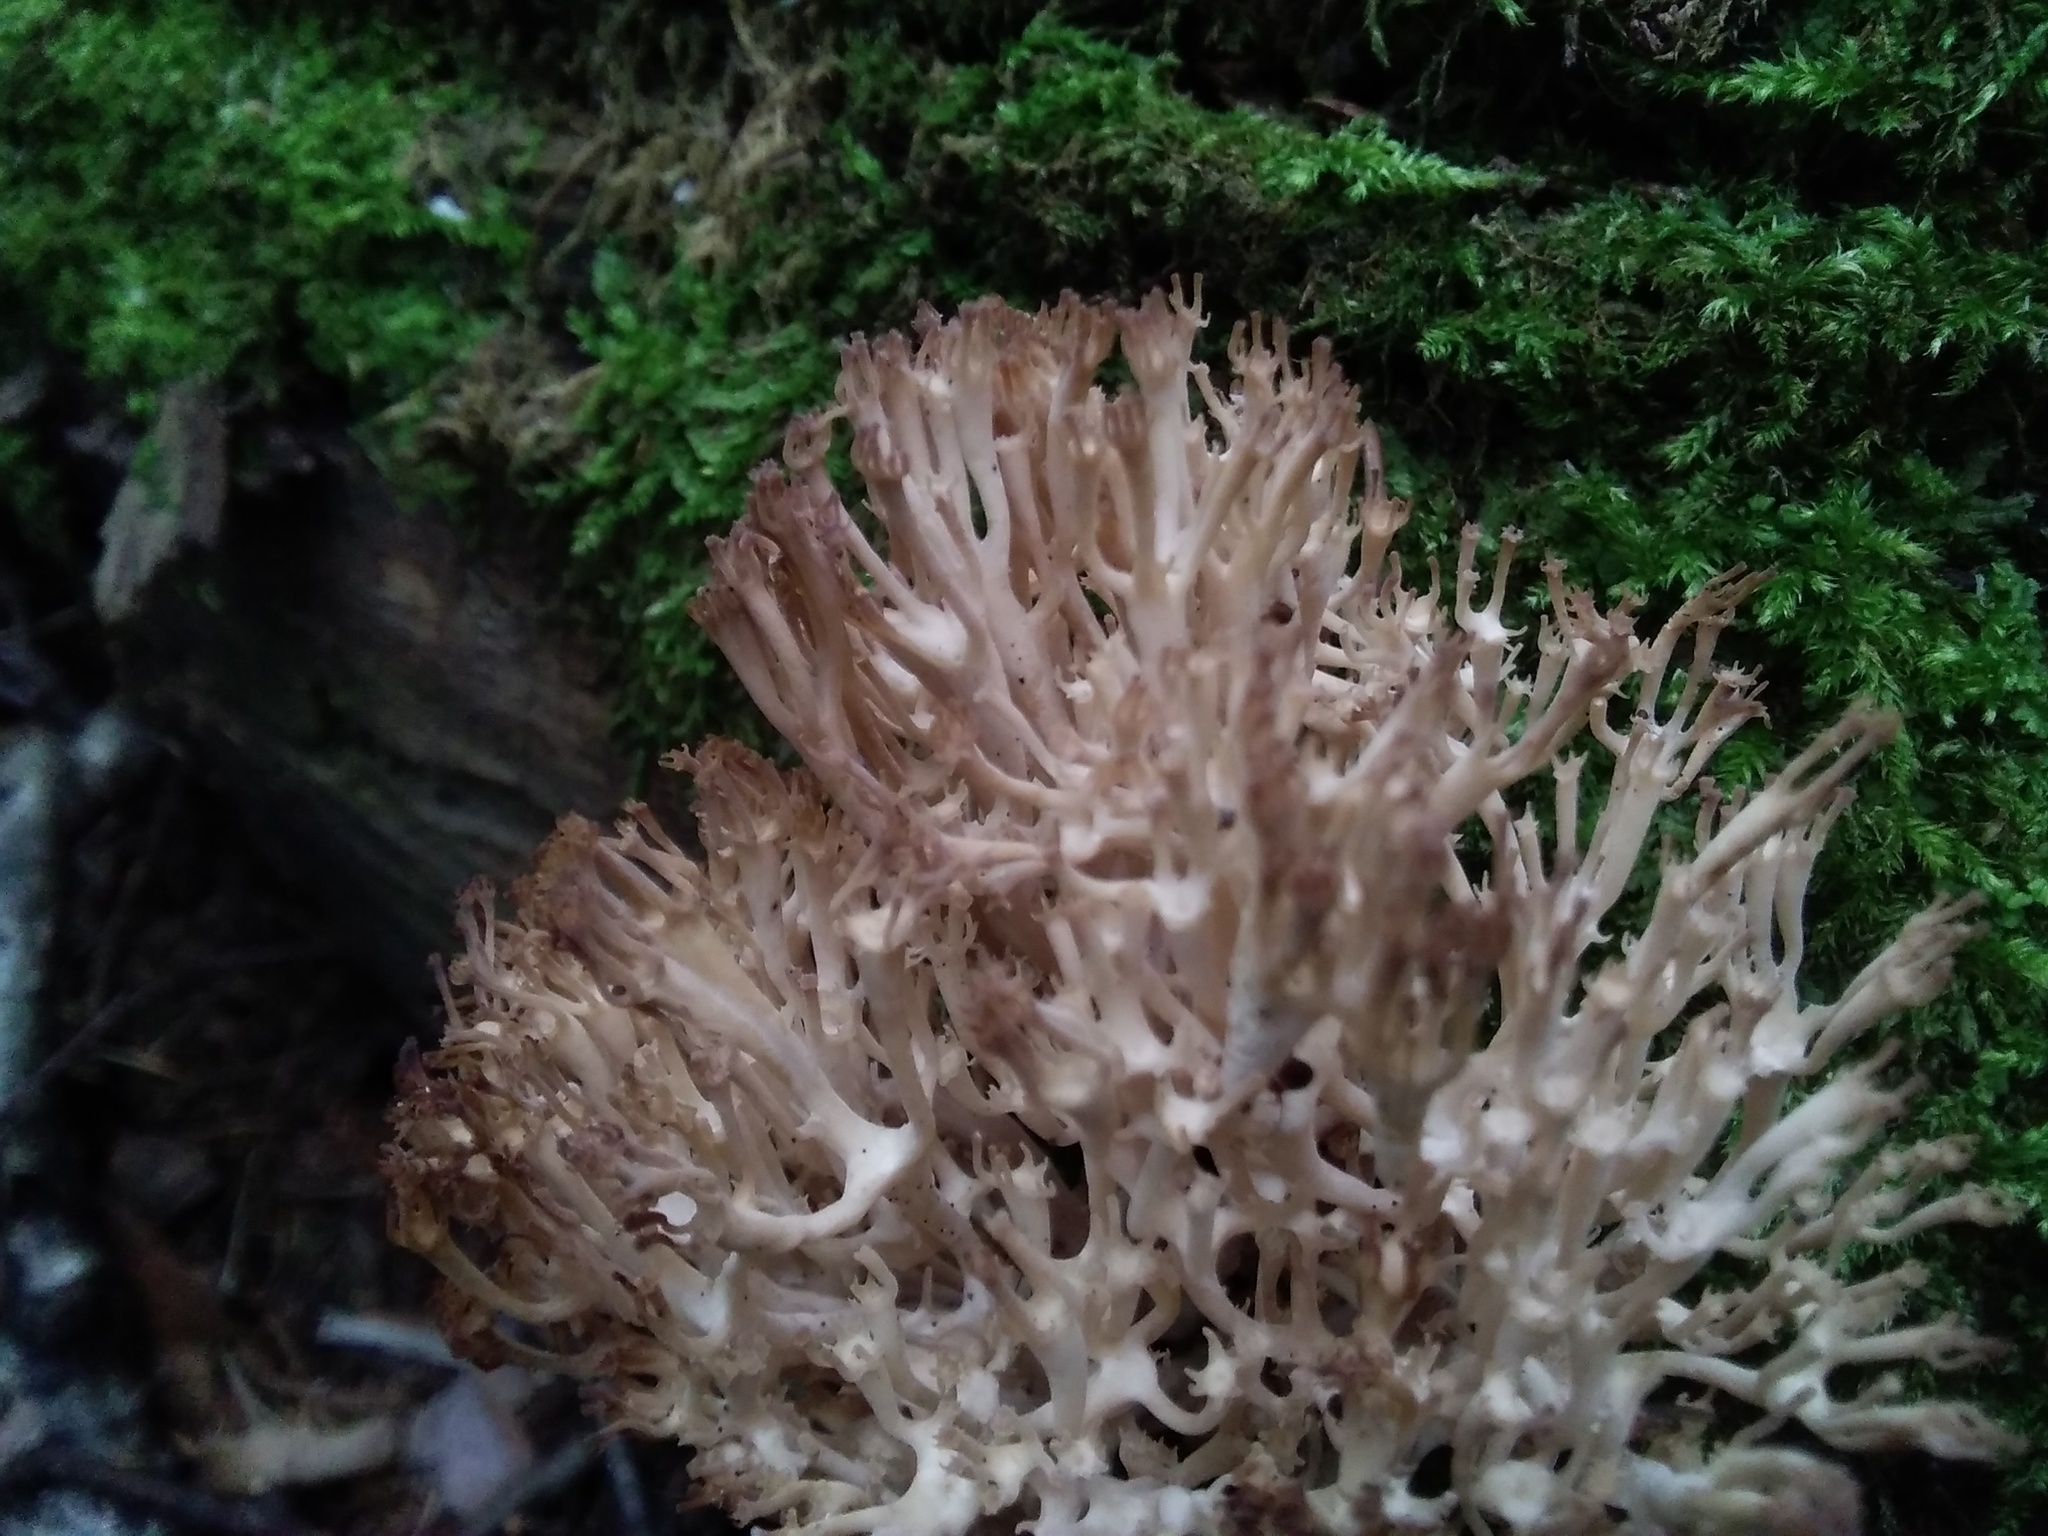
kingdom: Fungi
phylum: Basidiomycota
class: Agaricomycetes
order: Russulales
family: Auriscalpiaceae
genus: Artomyces
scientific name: Artomyces pyxidatus
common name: Crown-tipped coral fungus
